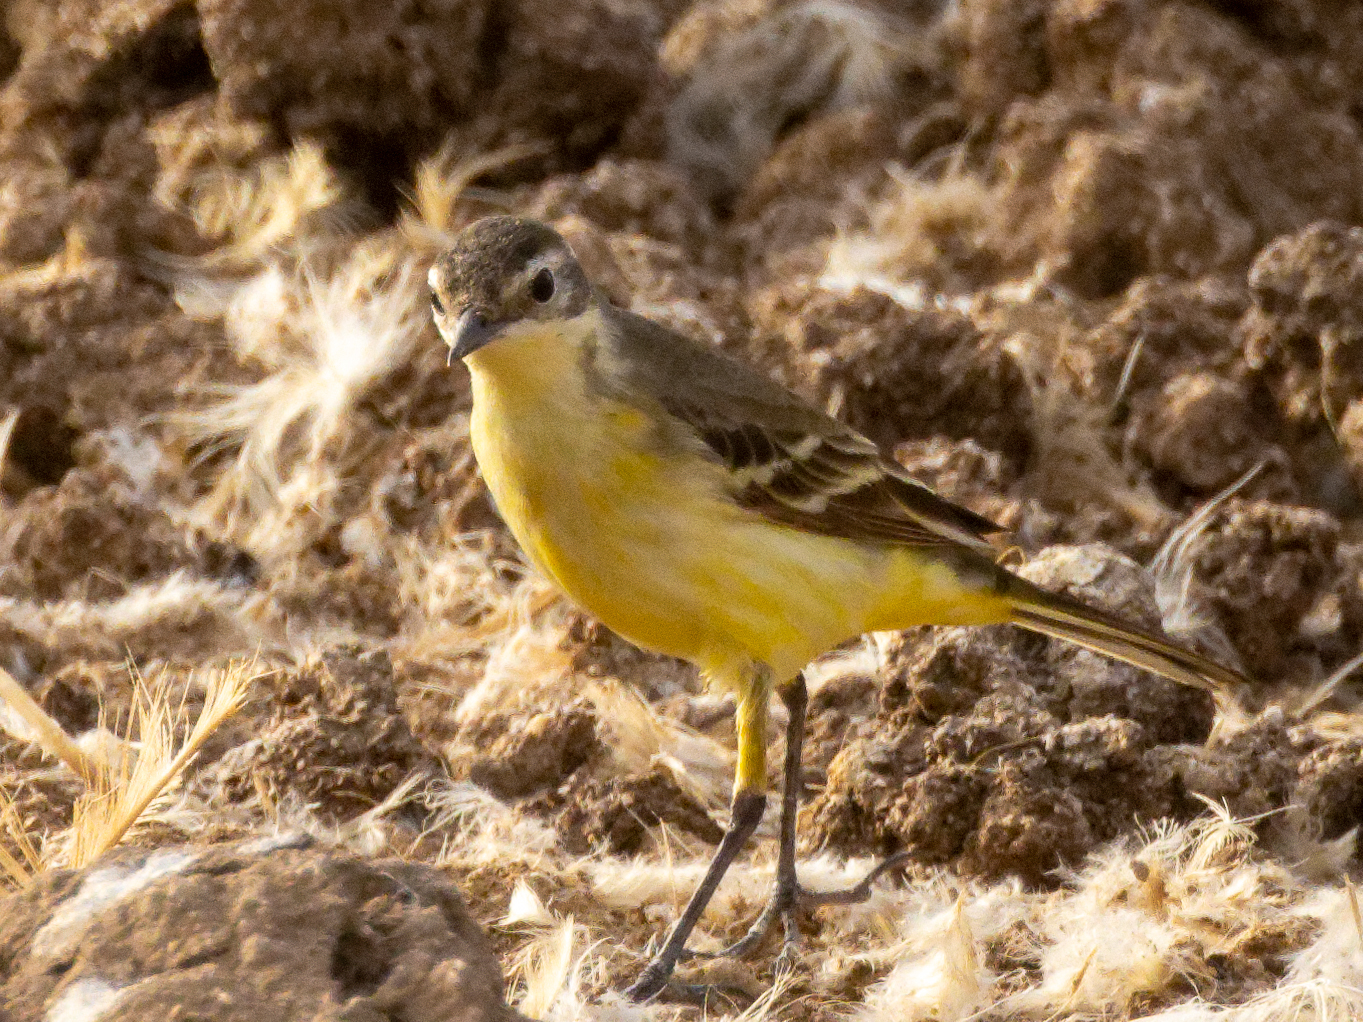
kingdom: Animalia
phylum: Chordata
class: Aves
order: Passeriformes
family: Motacillidae
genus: Motacilla
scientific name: Motacilla flava
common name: Western yellow wagtail
